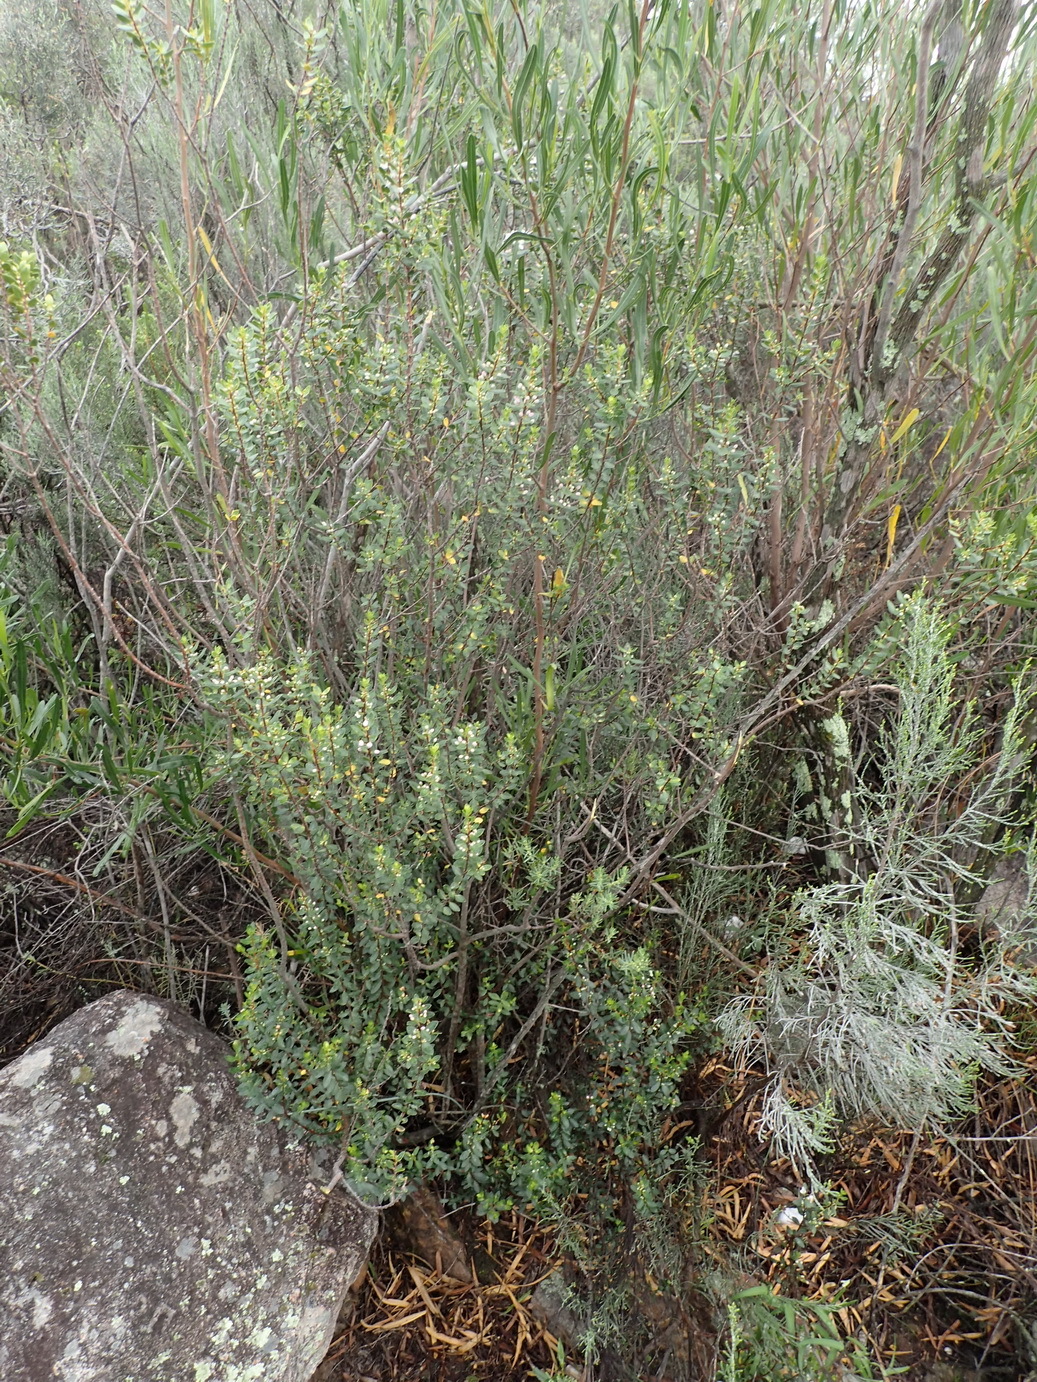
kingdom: Plantae
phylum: Tracheophyta
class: Magnoliopsida
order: Sapindales
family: Rutaceae
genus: Agathosma
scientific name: Agathosma ovata
